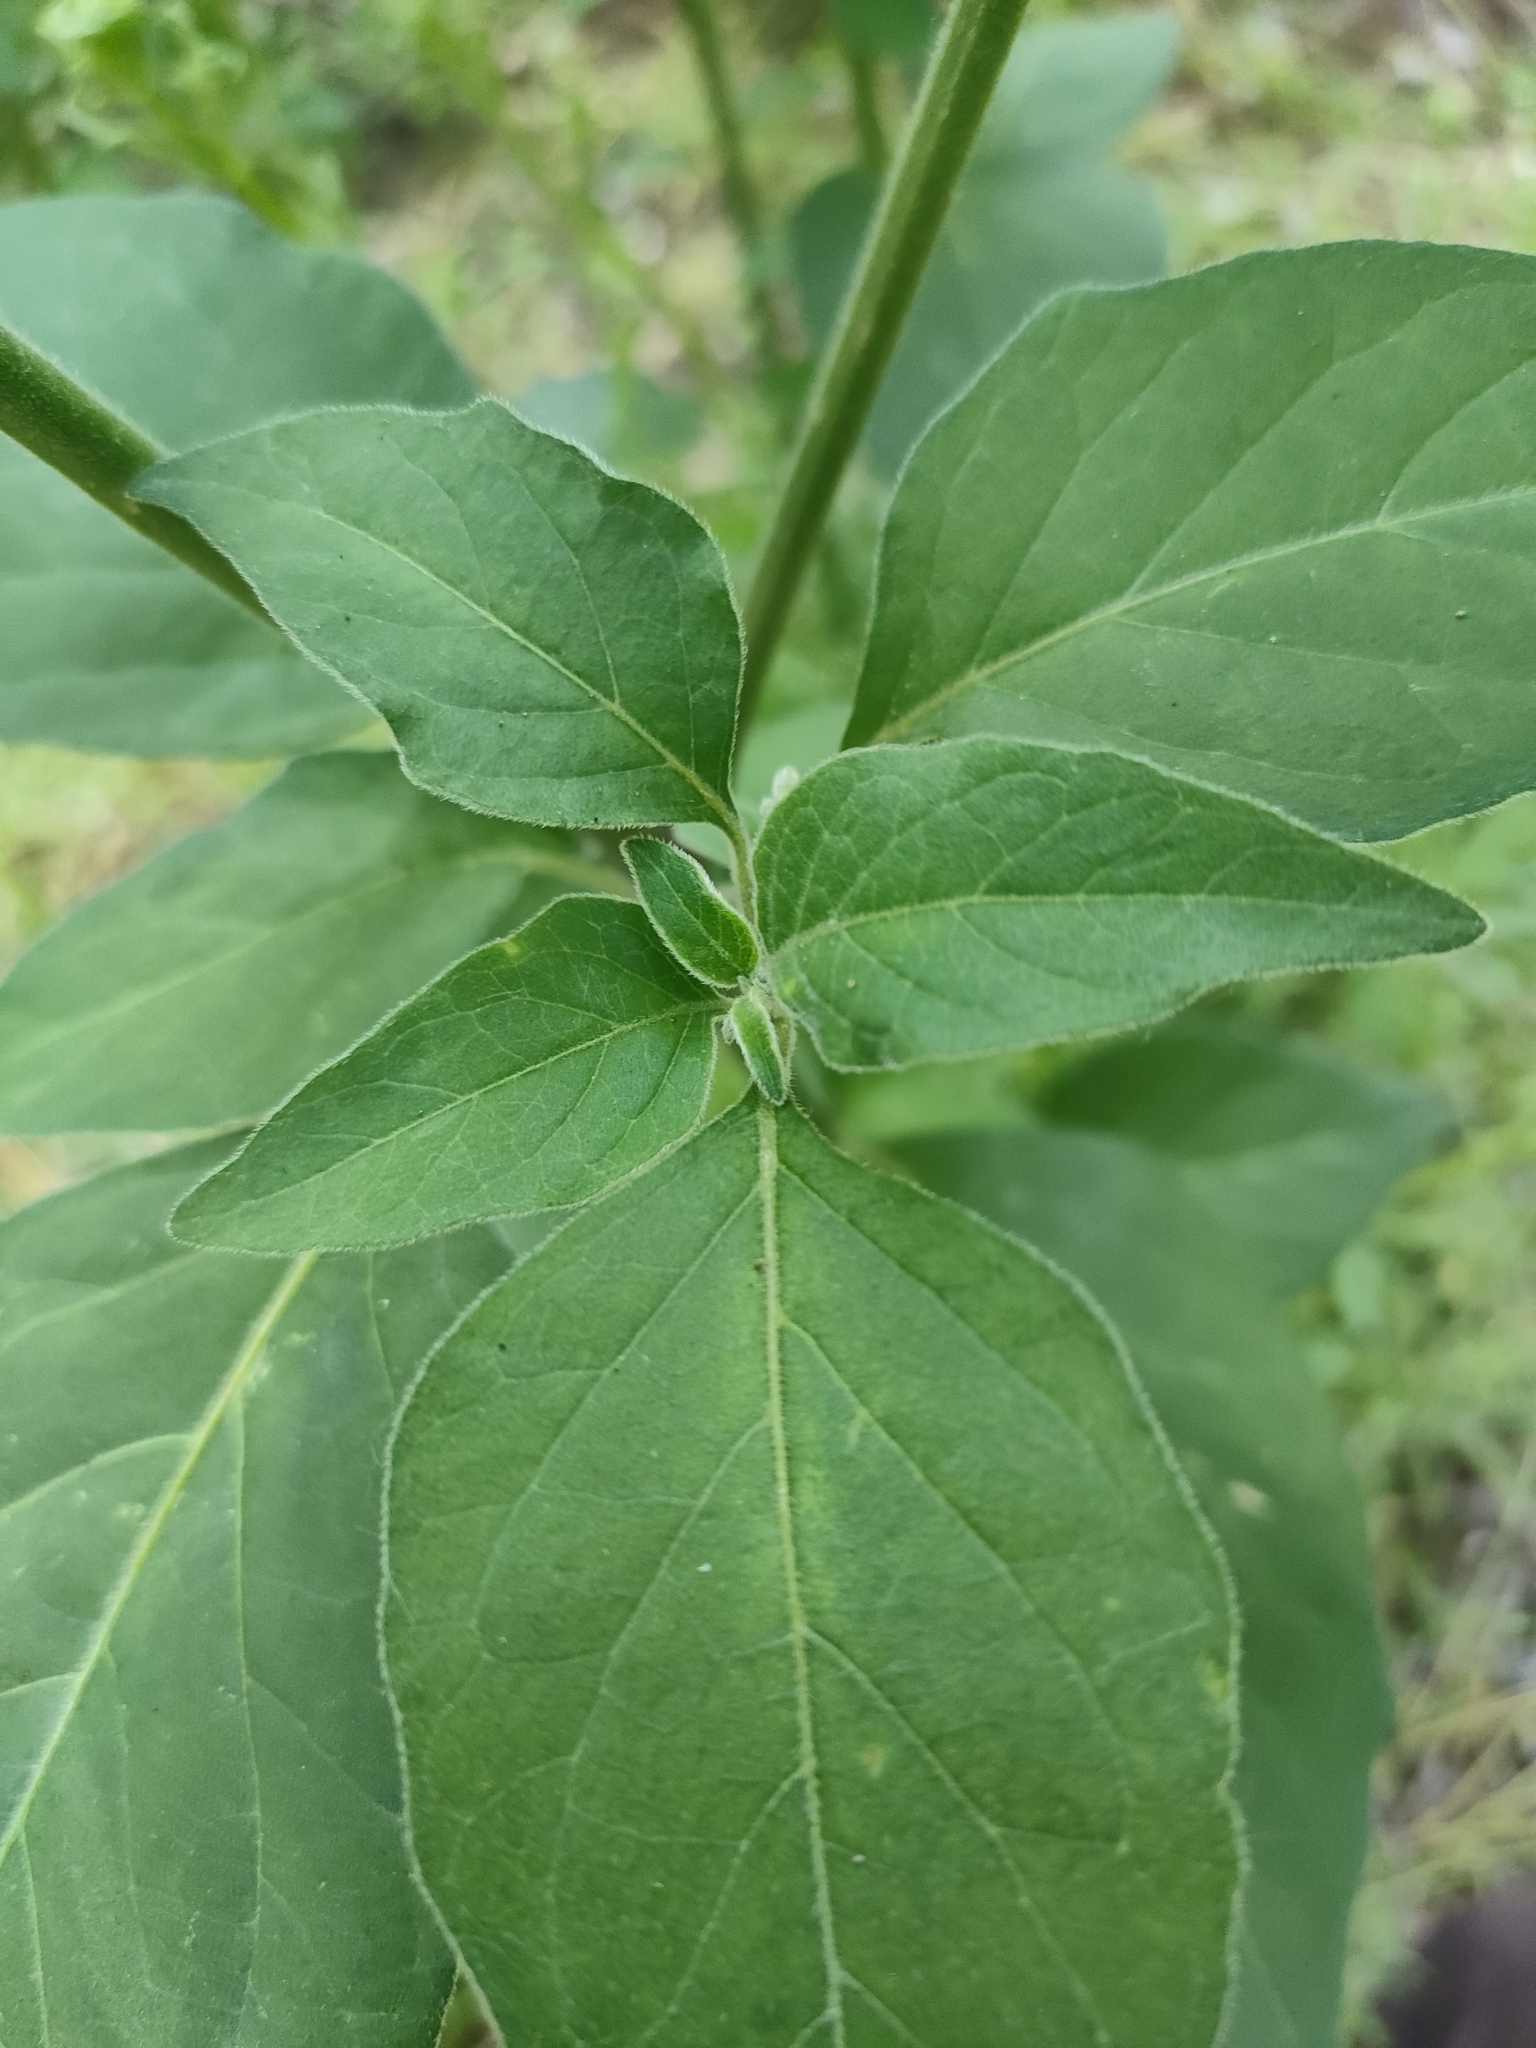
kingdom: Plantae
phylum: Tracheophyta
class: Magnoliopsida
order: Solanales
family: Solanaceae
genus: Solanum
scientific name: Solanum chenopodioides
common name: Tall nightshade
